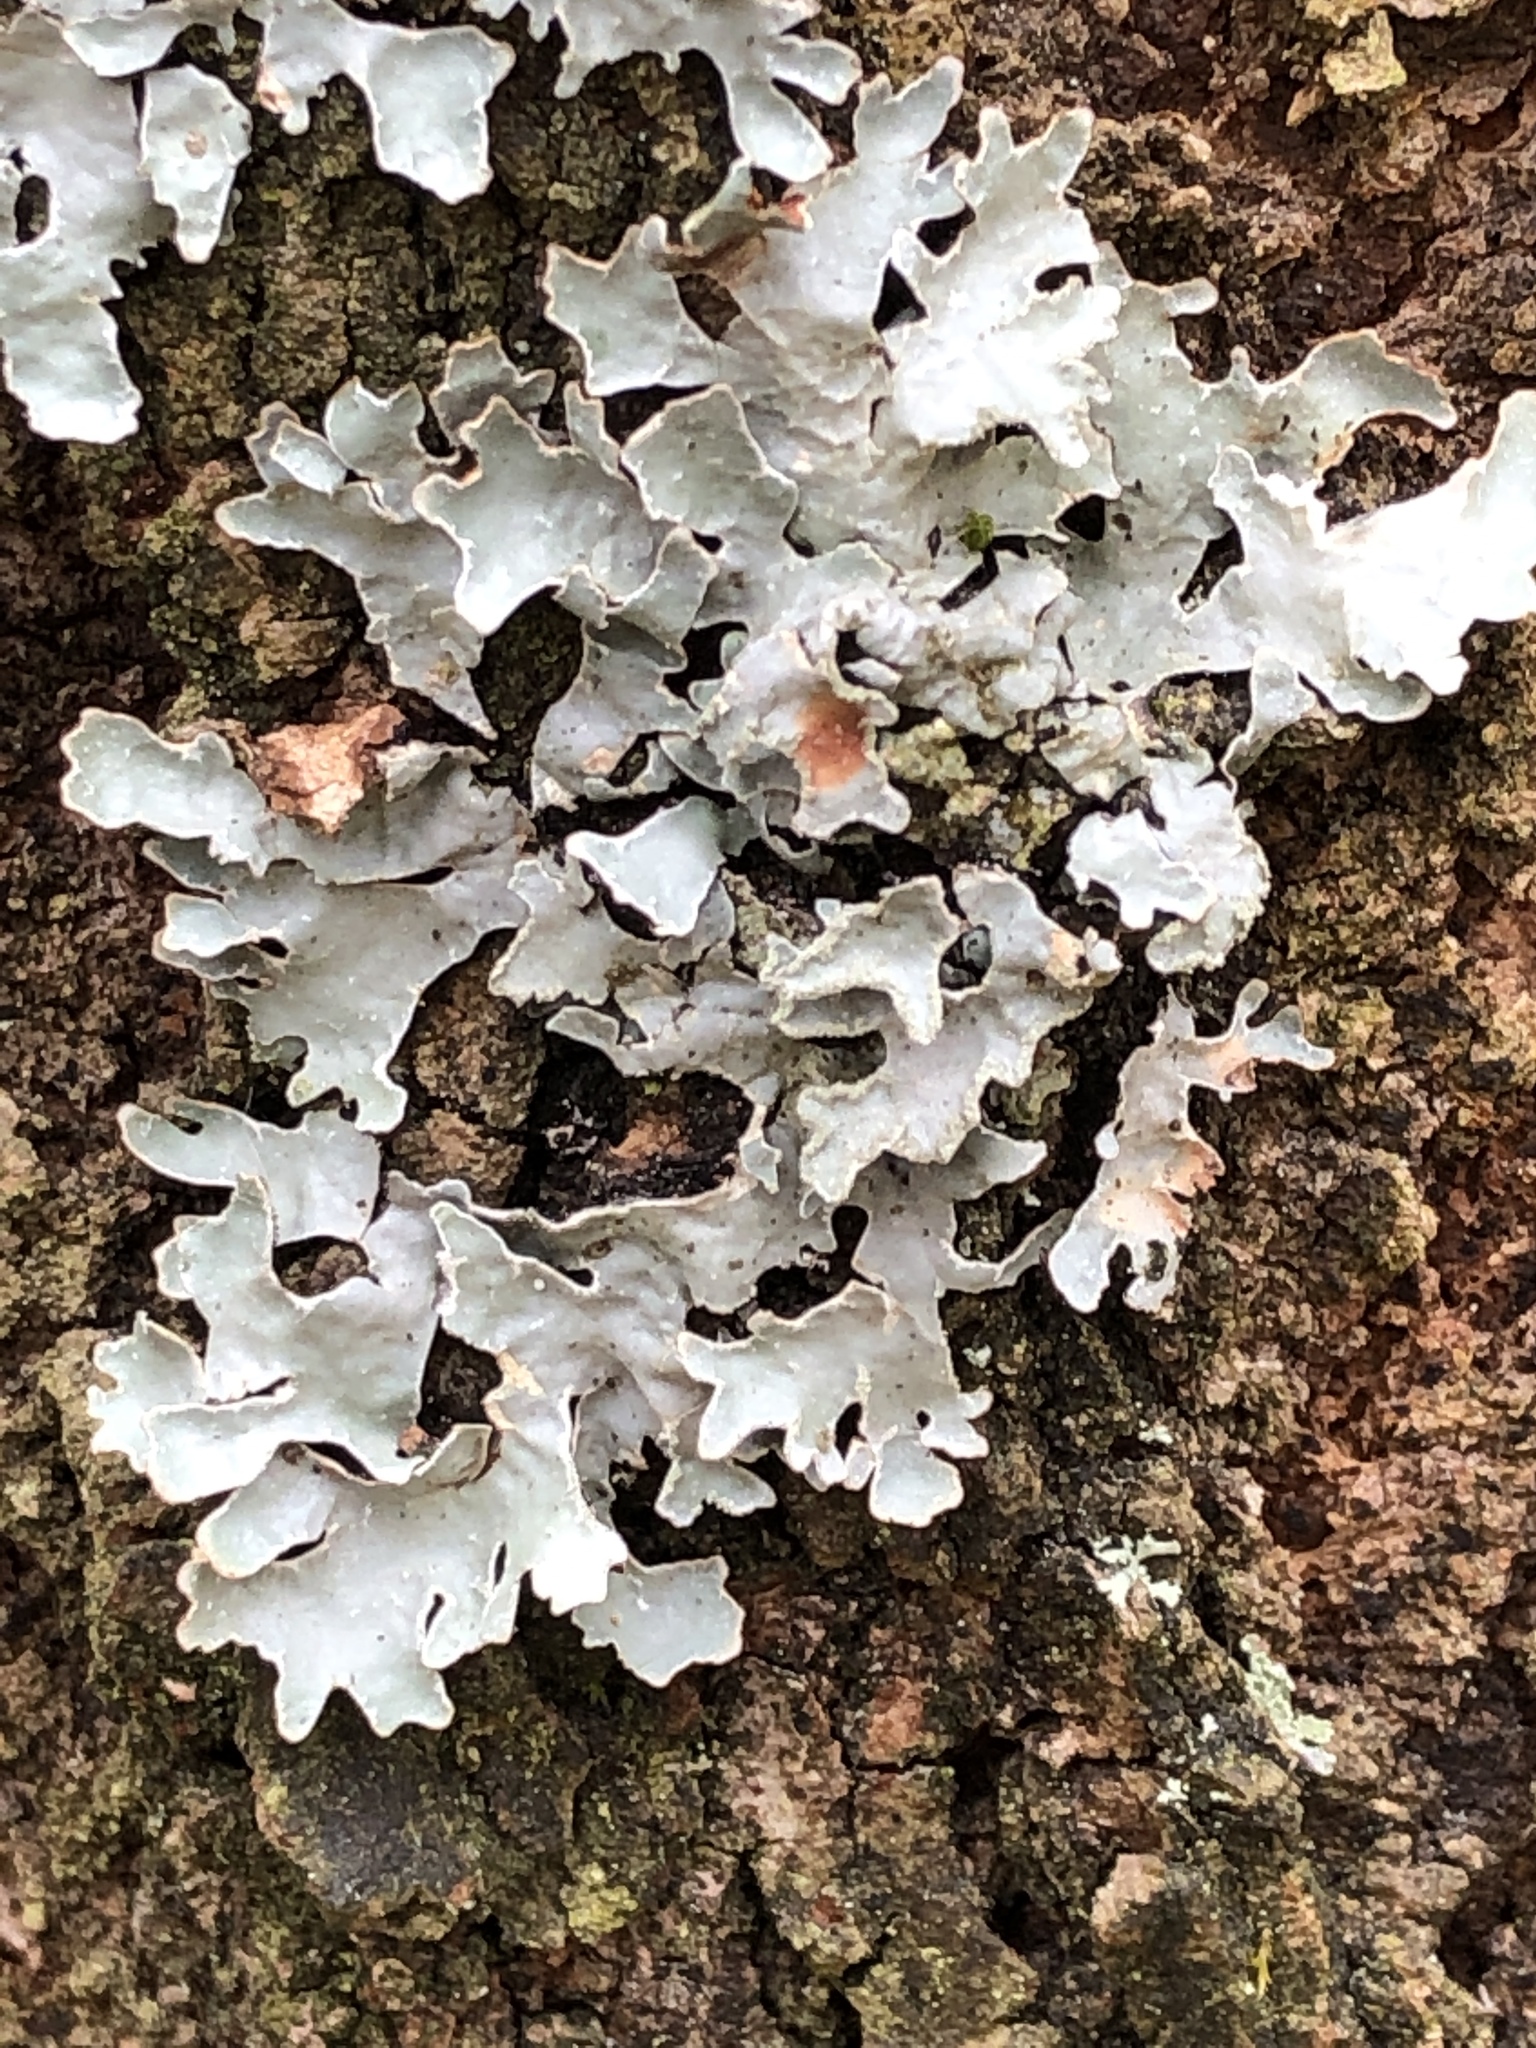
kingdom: Fungi
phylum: Ascomycota
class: Lecanoromycetes
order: Lecanorales
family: Parmeliaceae
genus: Parmelia
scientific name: Parmelia sulcata
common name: Netted shield lichen
